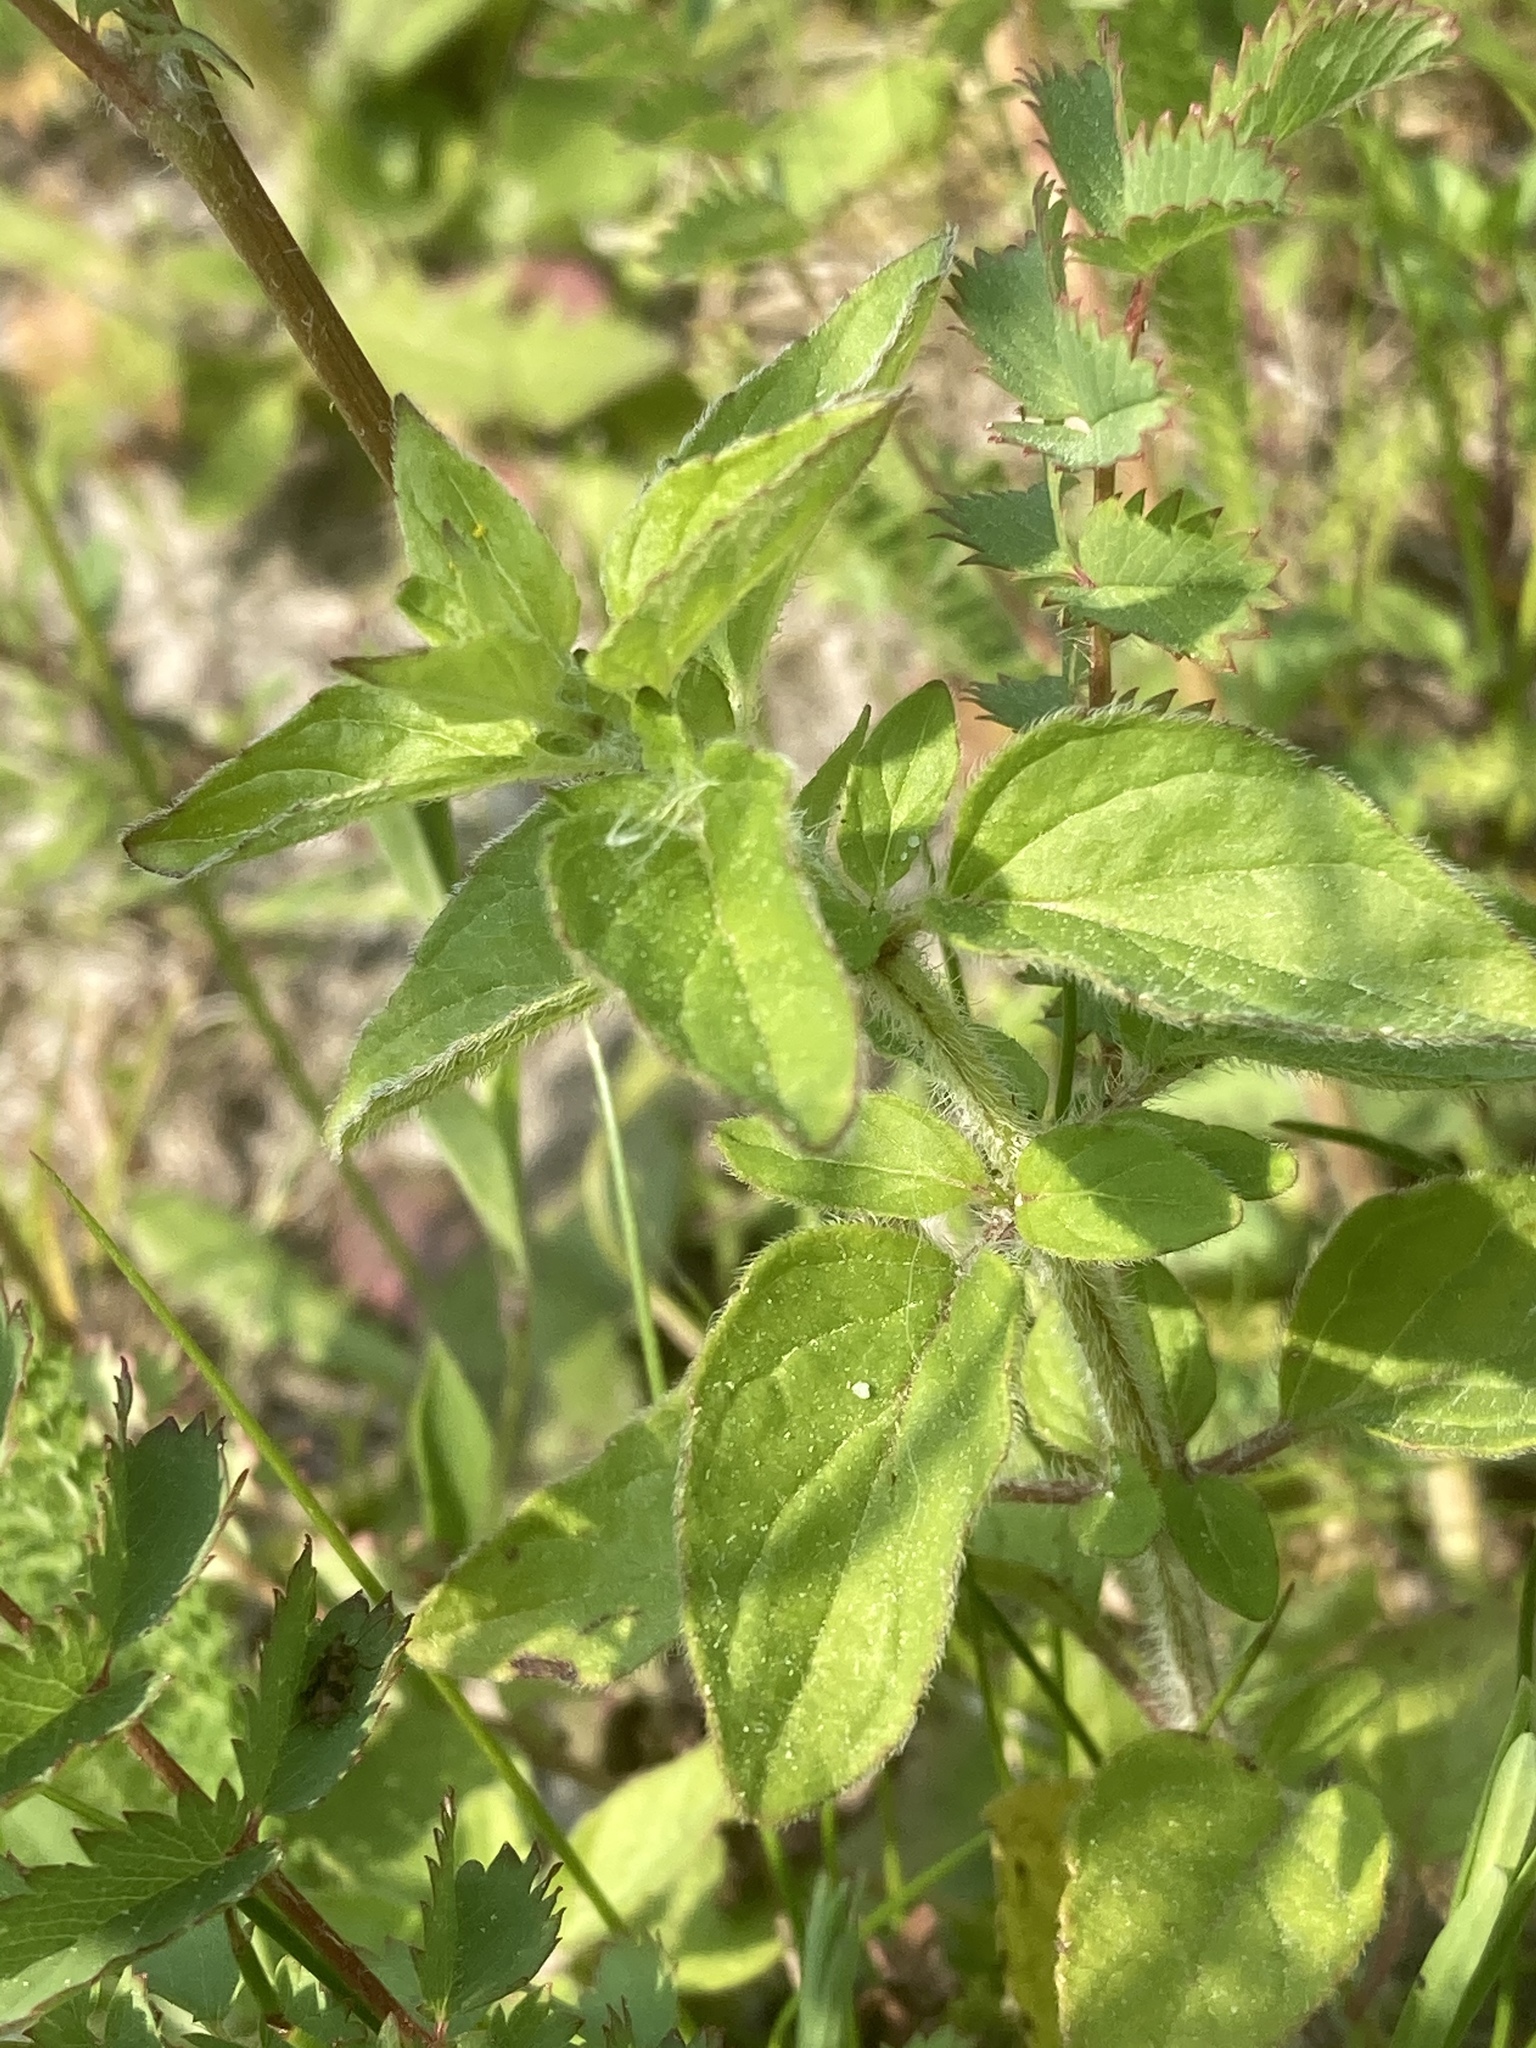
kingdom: Plantae
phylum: Tracheophyta
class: Magnoliopsida
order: Lamiales
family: Lamiaceae
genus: Origanum
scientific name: Origanum vulgare
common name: Wild marjoram
